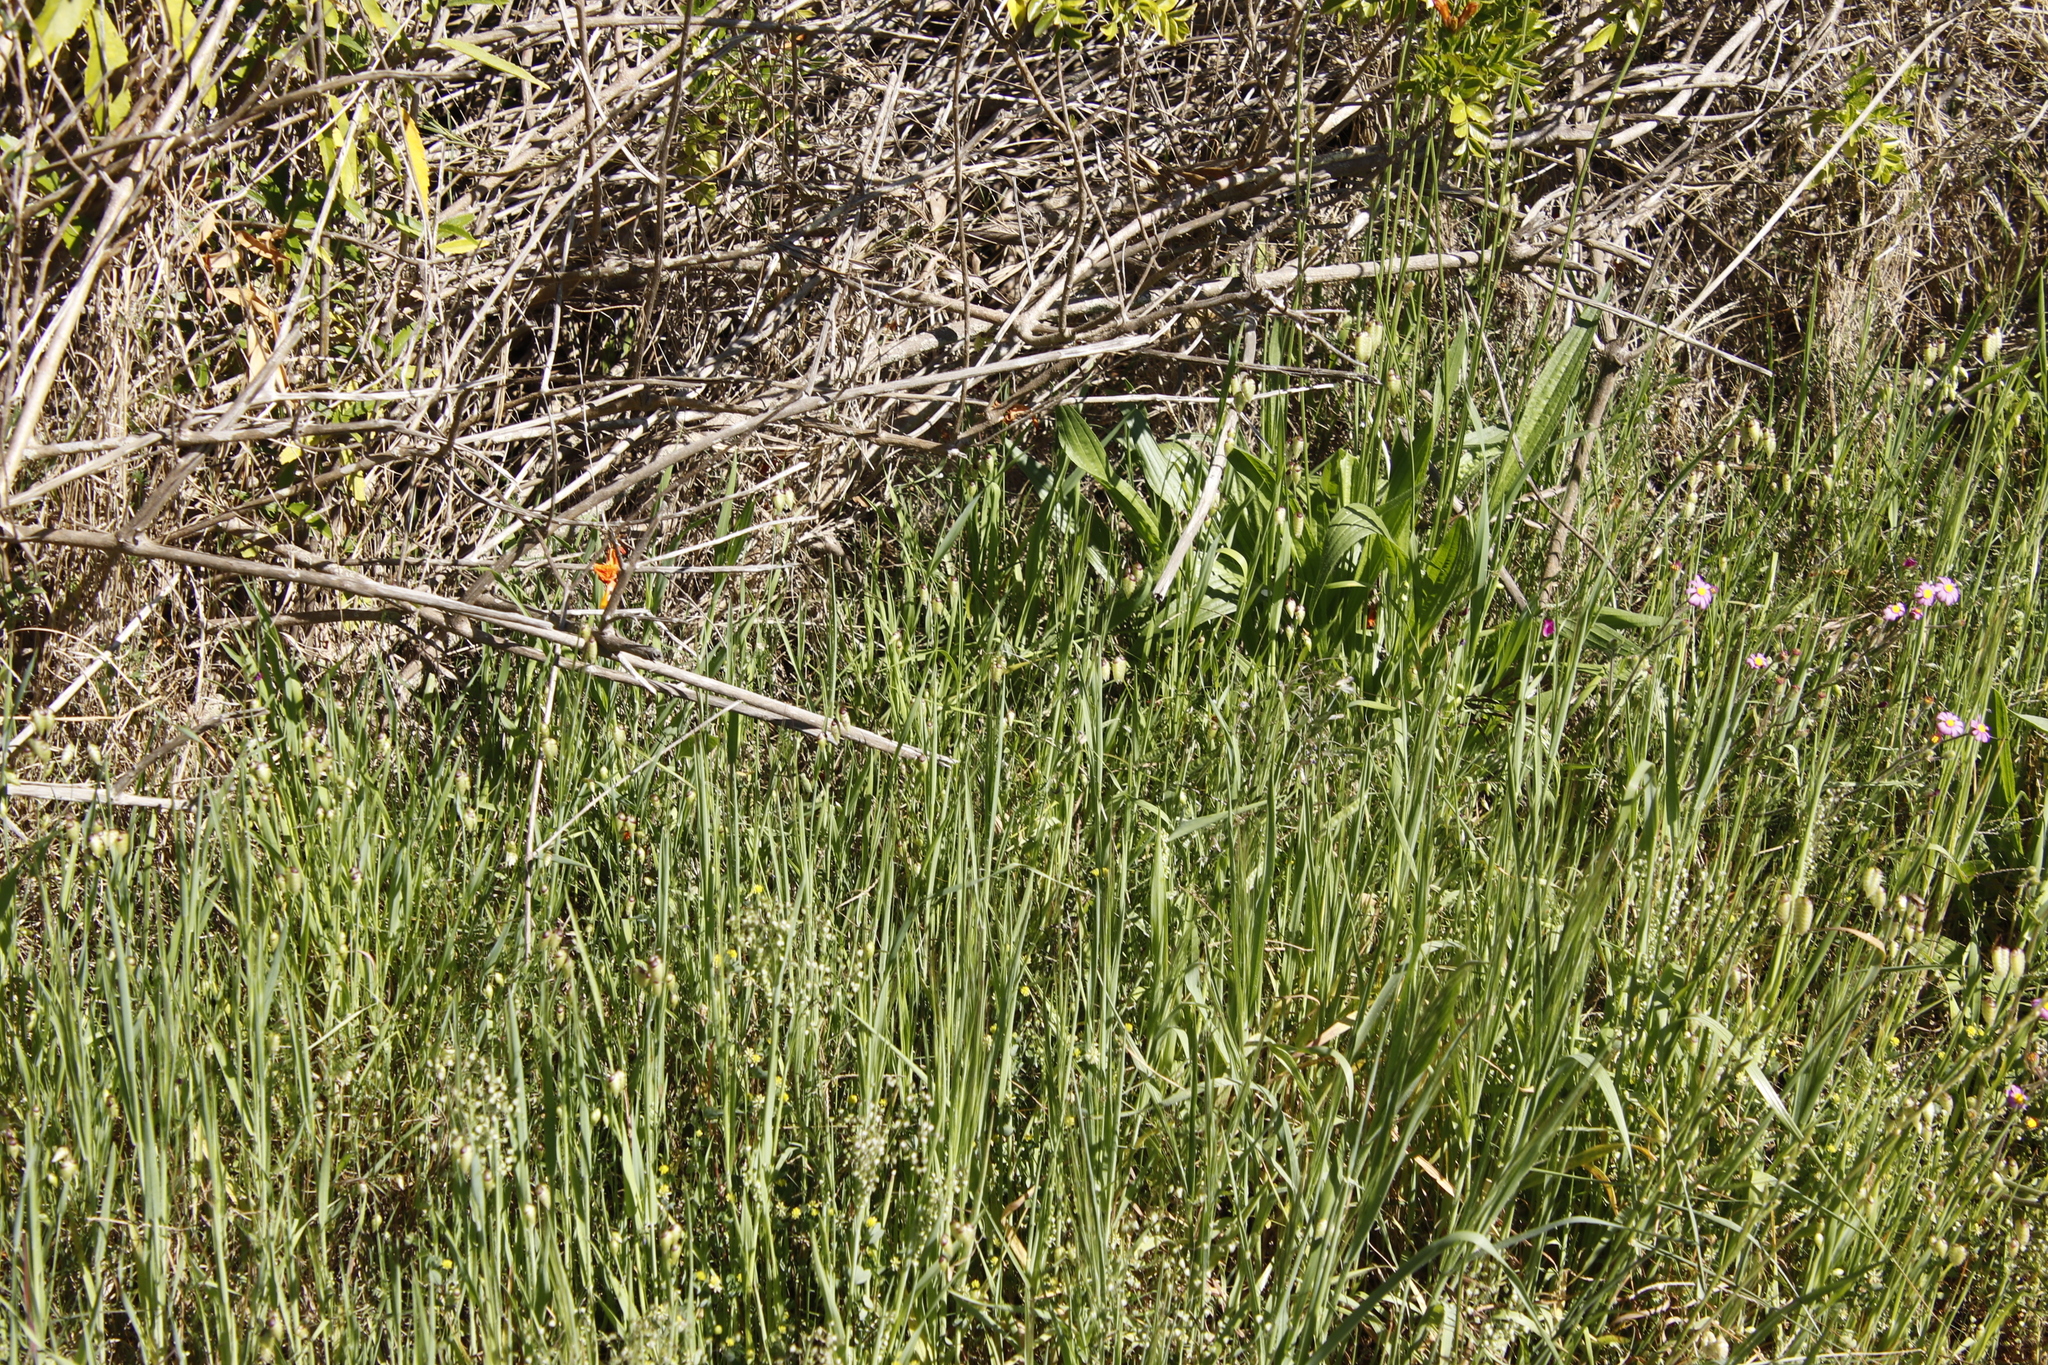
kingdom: Plantae
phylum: Tracheophyta
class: Liliopsida
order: Poales
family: Poaceae
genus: Briza
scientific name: Briza maxima
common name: Big quakinggrass
